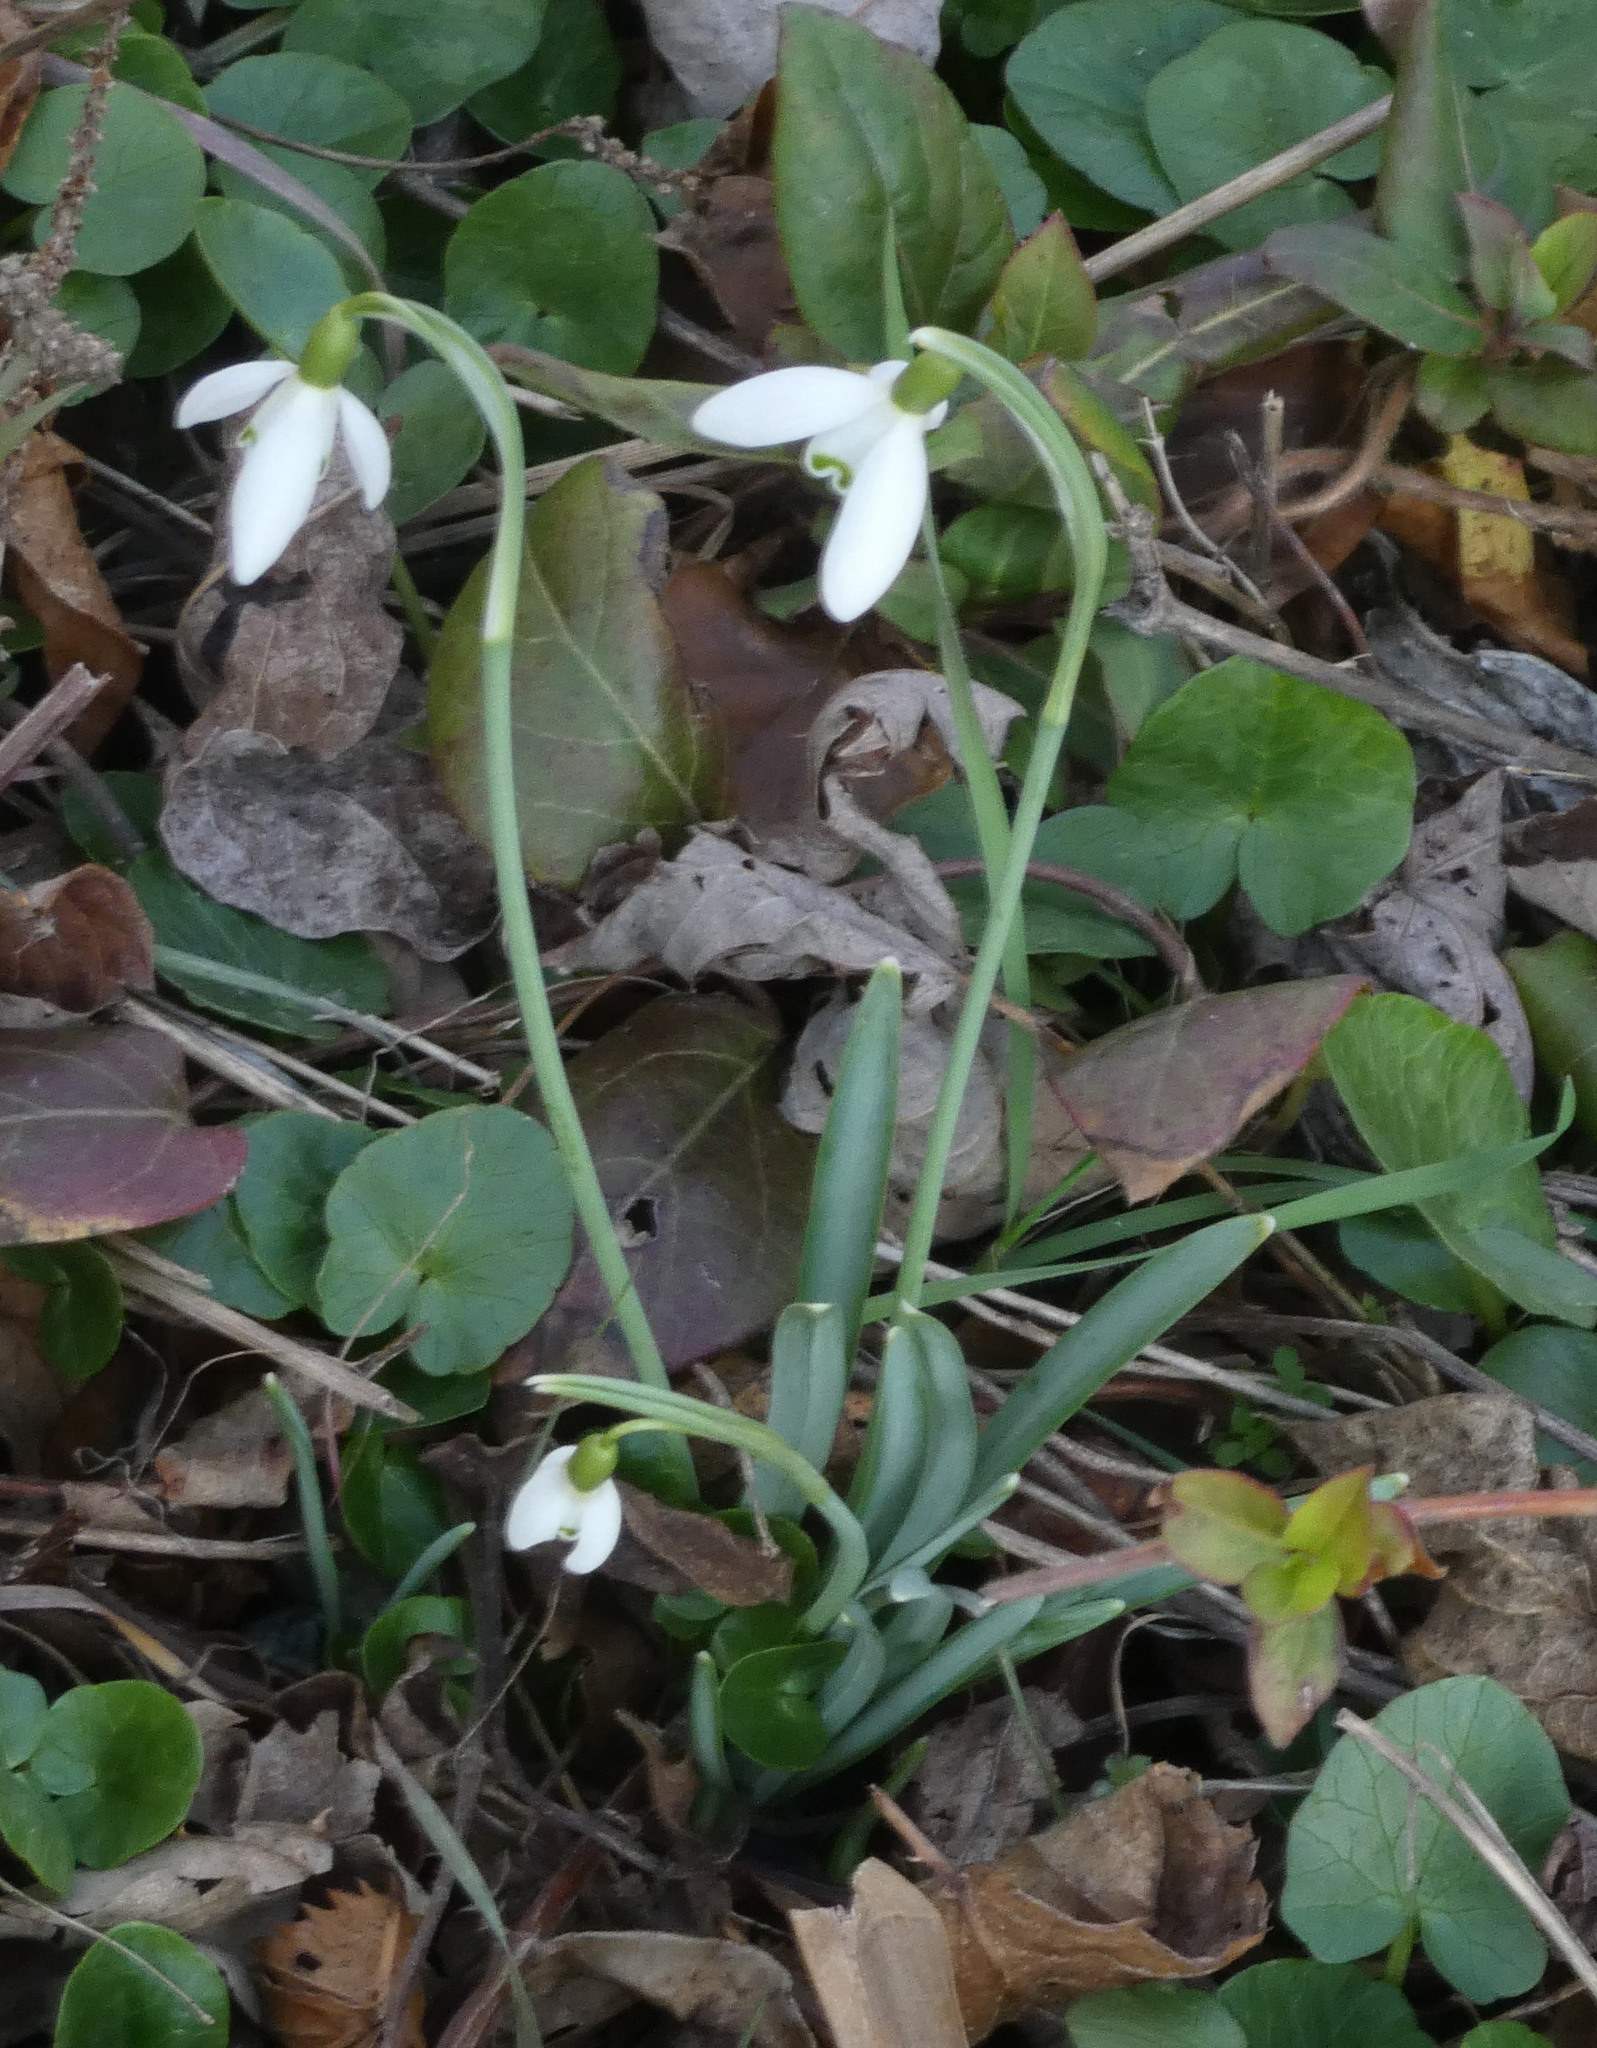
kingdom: Plantae
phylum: Tracheophyta
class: Liliopsida
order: Asparagales
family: Amaryllidaceae
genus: Galanthus
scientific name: Galanthus nivalis
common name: Snowdrop
